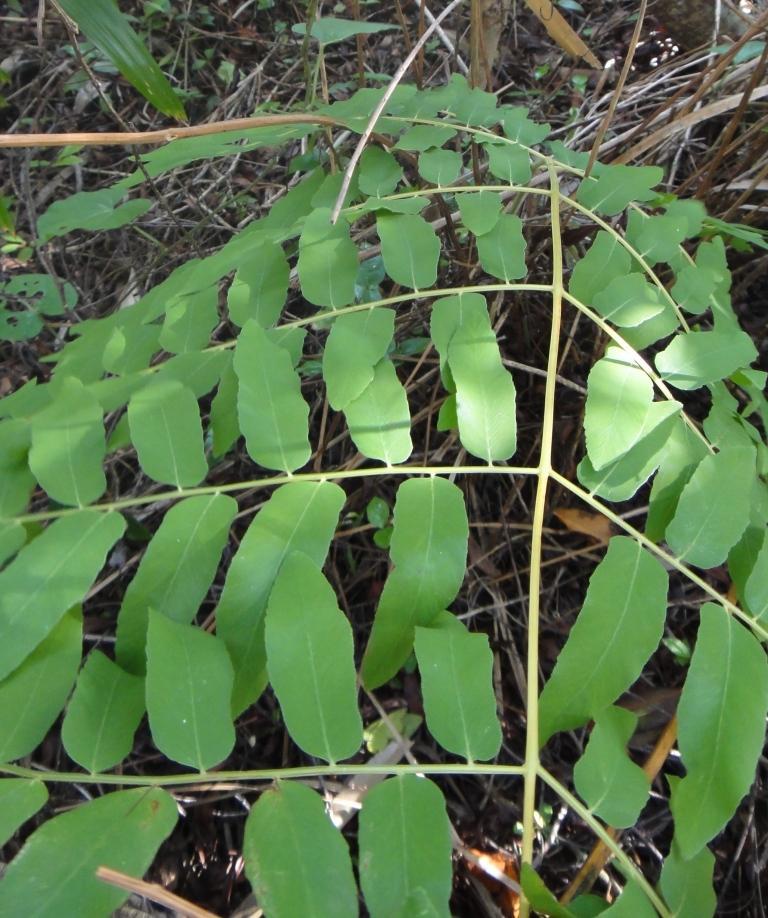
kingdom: Plantae
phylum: Tracheophyta
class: Polypodiopsida
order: Osmundales
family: Osmundaceae
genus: Osmunda
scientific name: Osmunda spectabilis
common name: American royal fern
